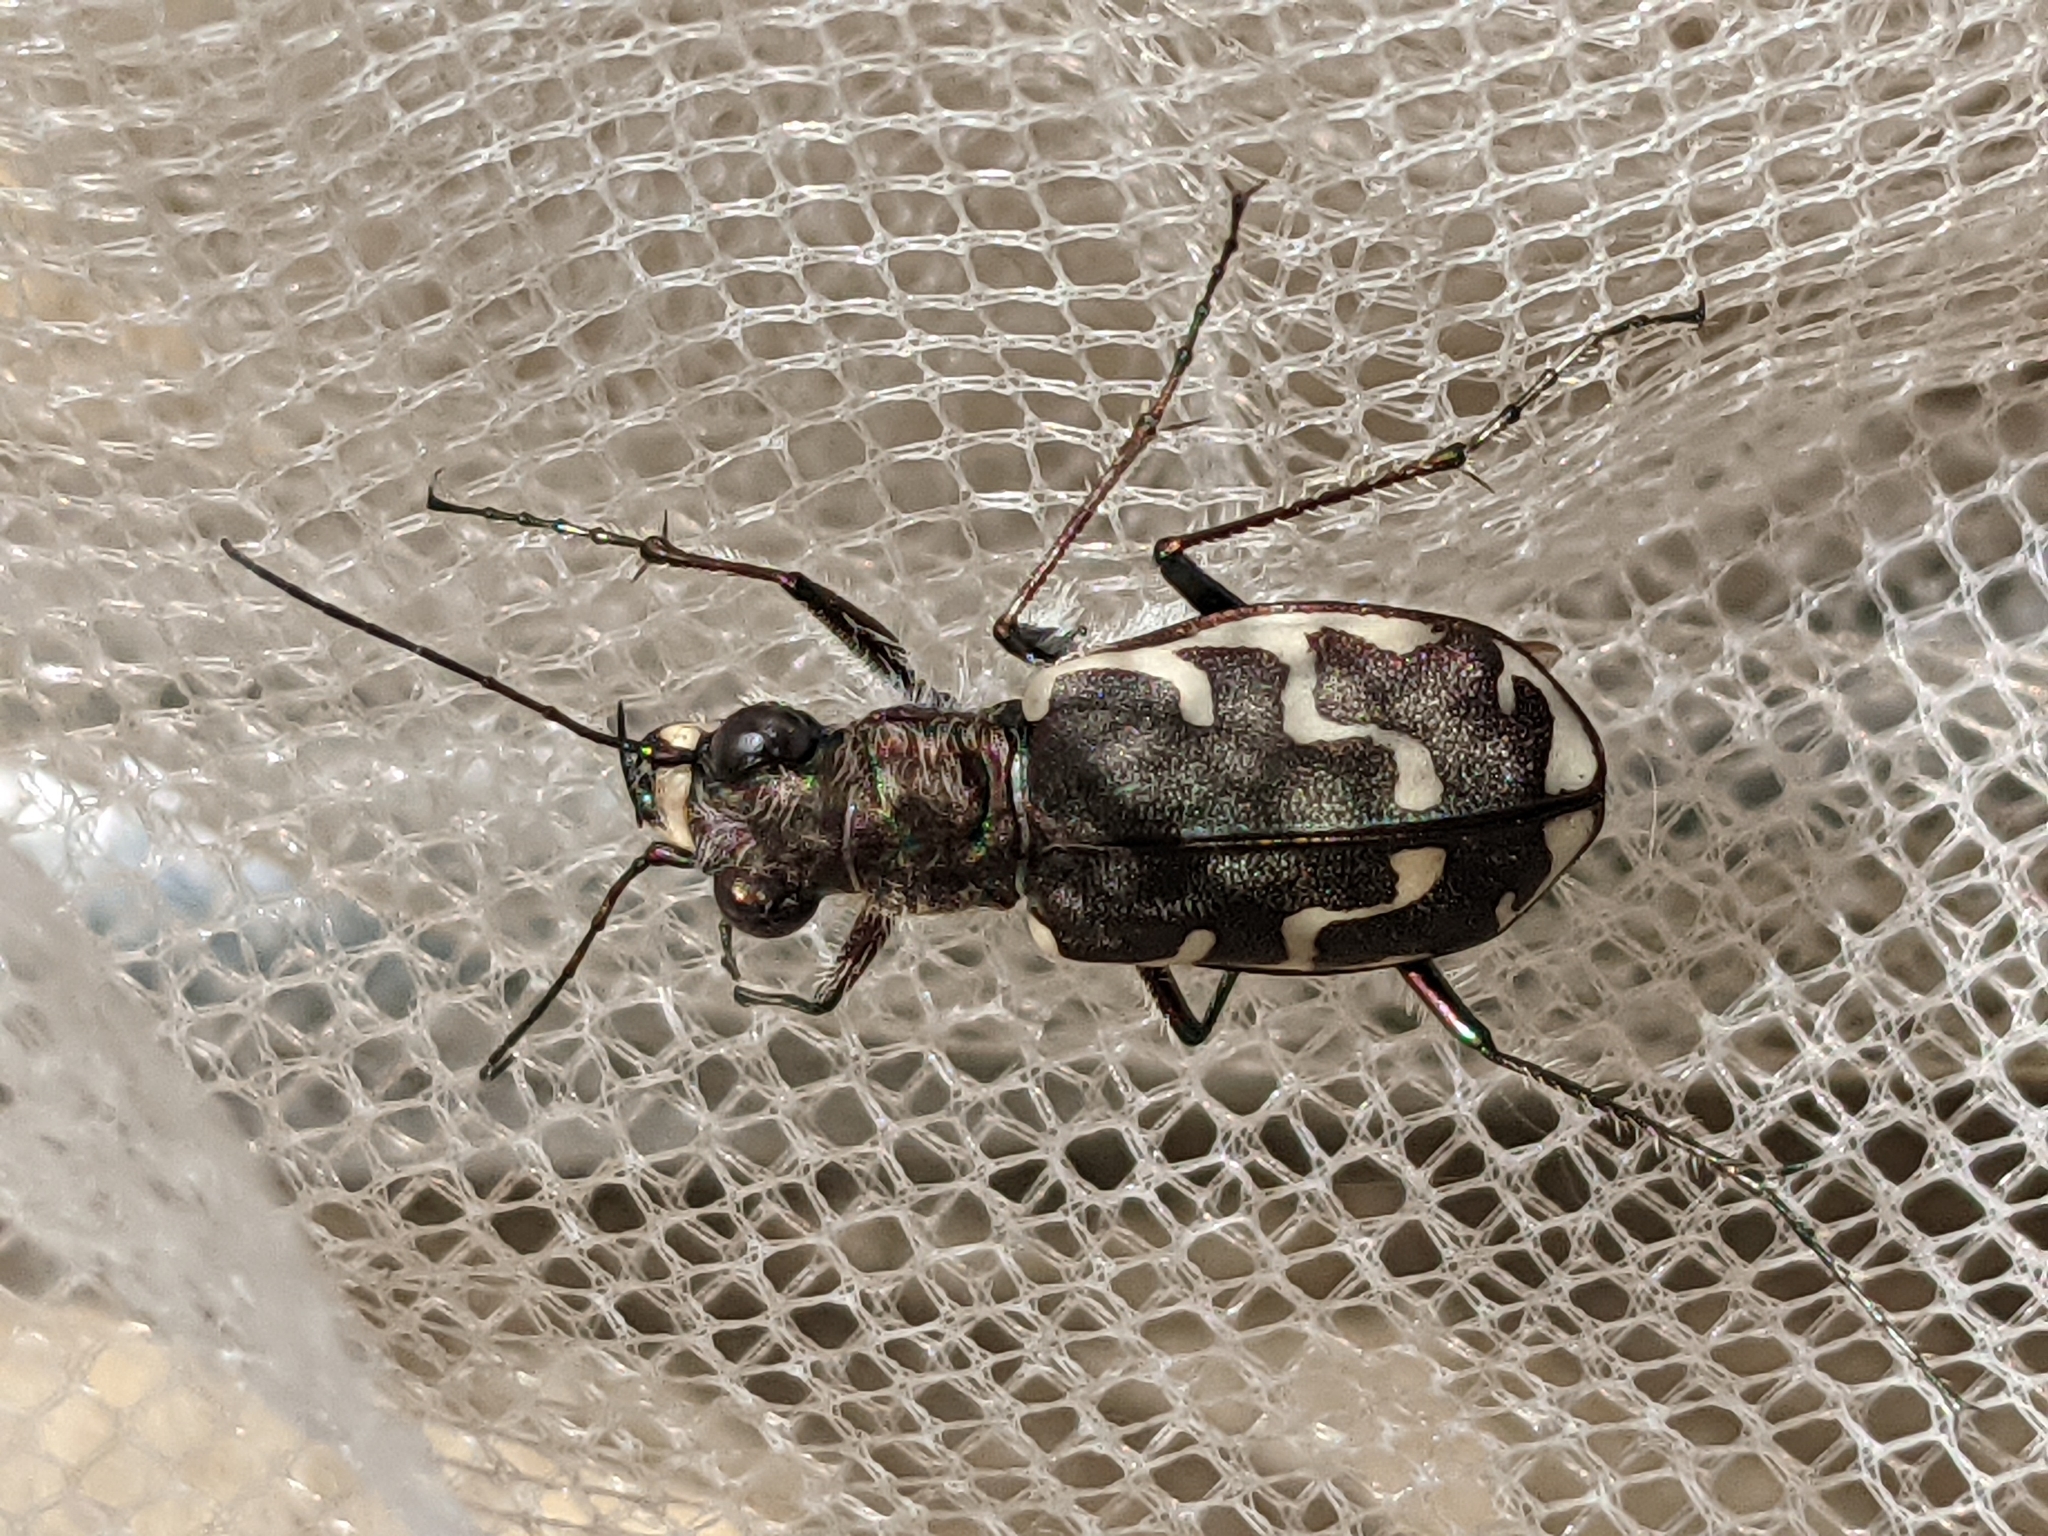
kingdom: Animalia
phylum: Arthropoda
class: Insecta
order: Coleoptera
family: Carabidae
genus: Cicindela
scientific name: Cicindela repanda
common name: Bronzed tiger beetle
